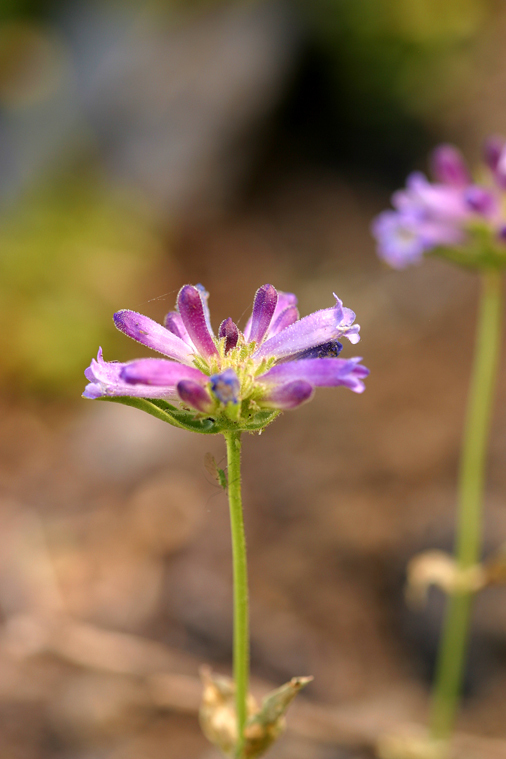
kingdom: Plantae
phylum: Tracheophyta
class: Magnoliopsida
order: Lamiales
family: Plantaginaceae
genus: Penstemon
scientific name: Penstemon heterodoxus
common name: Sierran penstemon
